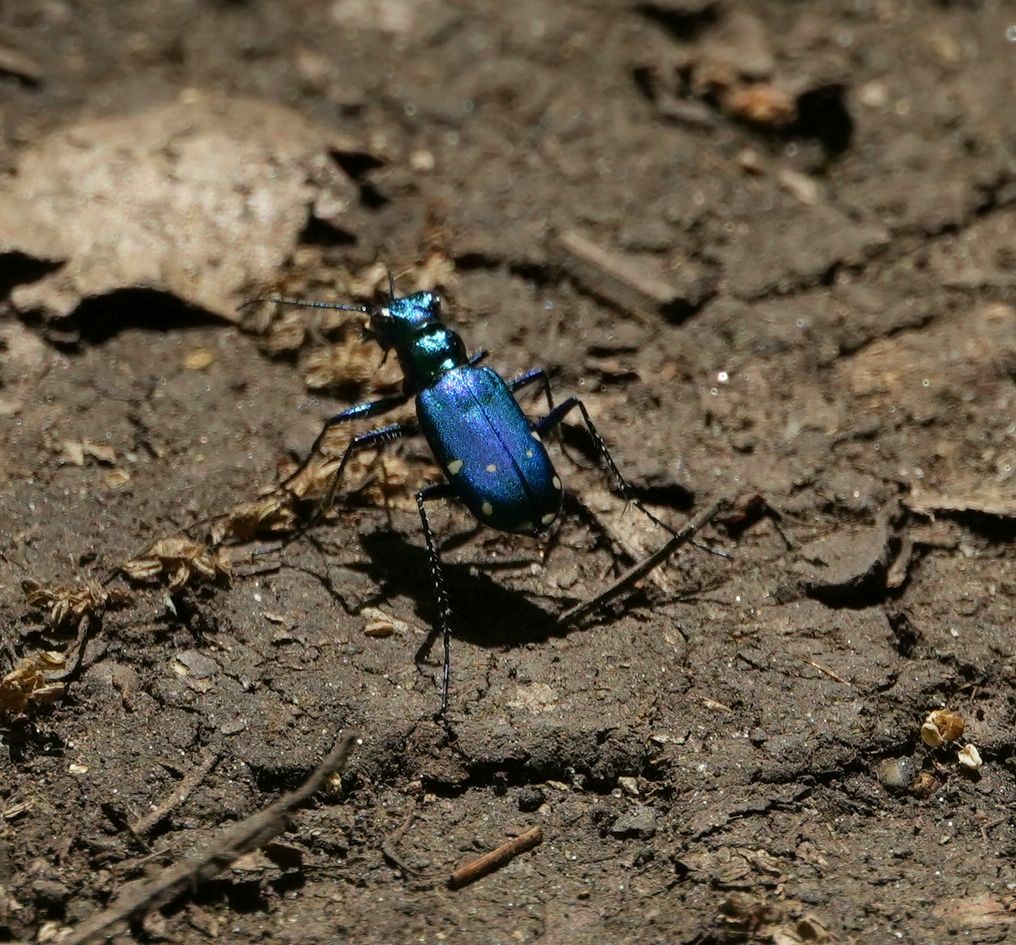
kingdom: Animalia
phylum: Arthropoda
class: Insecta
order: Coleoptera
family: Carabidae
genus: Cicindela
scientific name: Cicindela sexguttata
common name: Six-spotted tiger beetle
